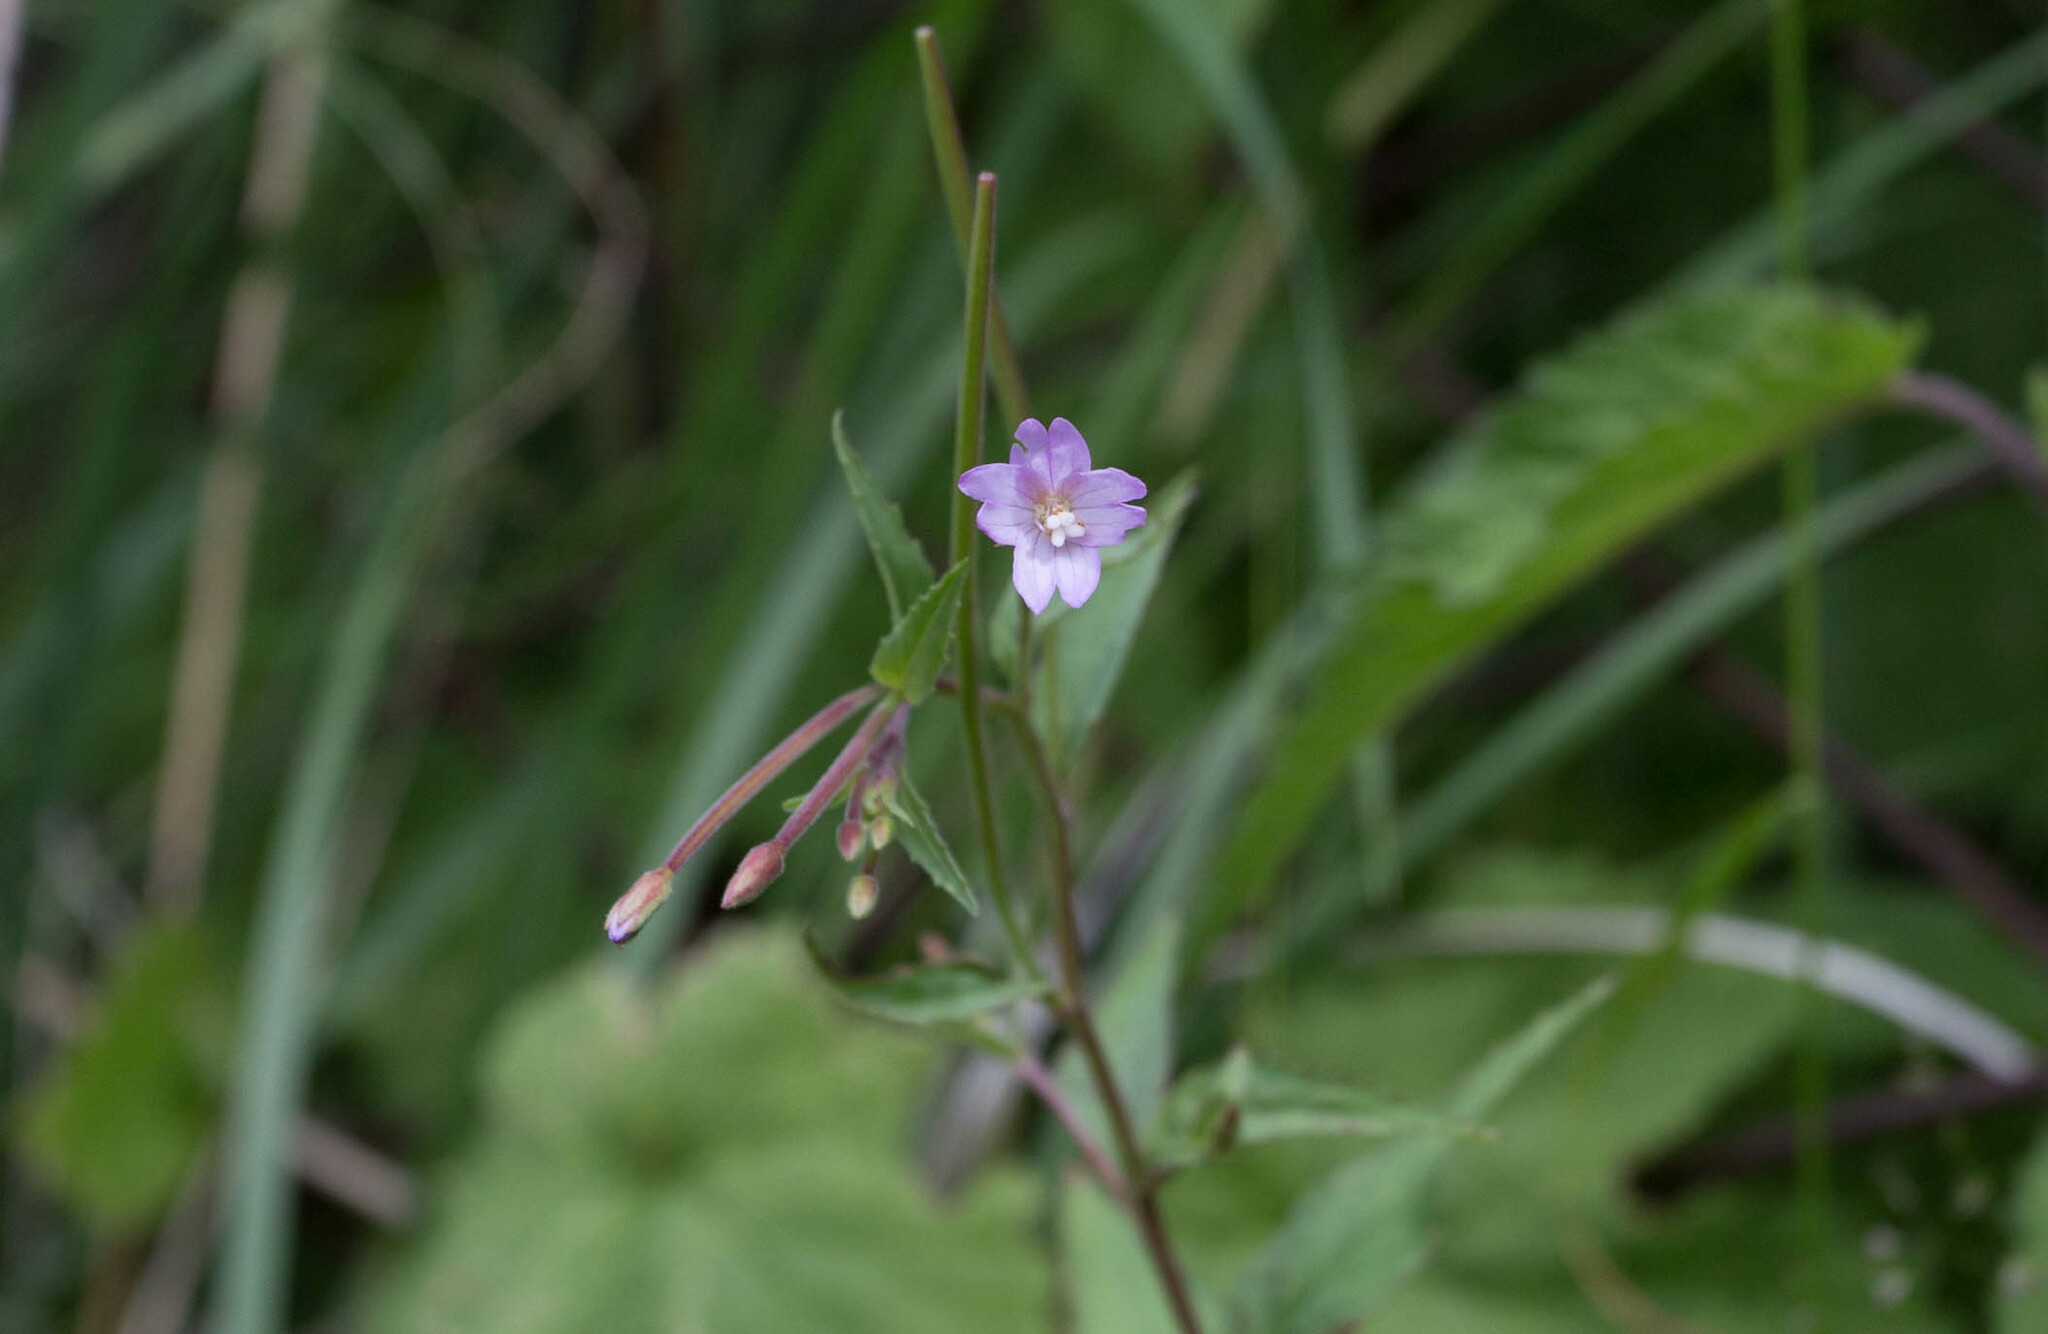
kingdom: Plantae
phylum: Tracheophyta
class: Magnoliopsida
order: Myrtales
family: Onagraceae
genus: Epilobium
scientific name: Epilobium montanum
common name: Broad-leaved willowherb
